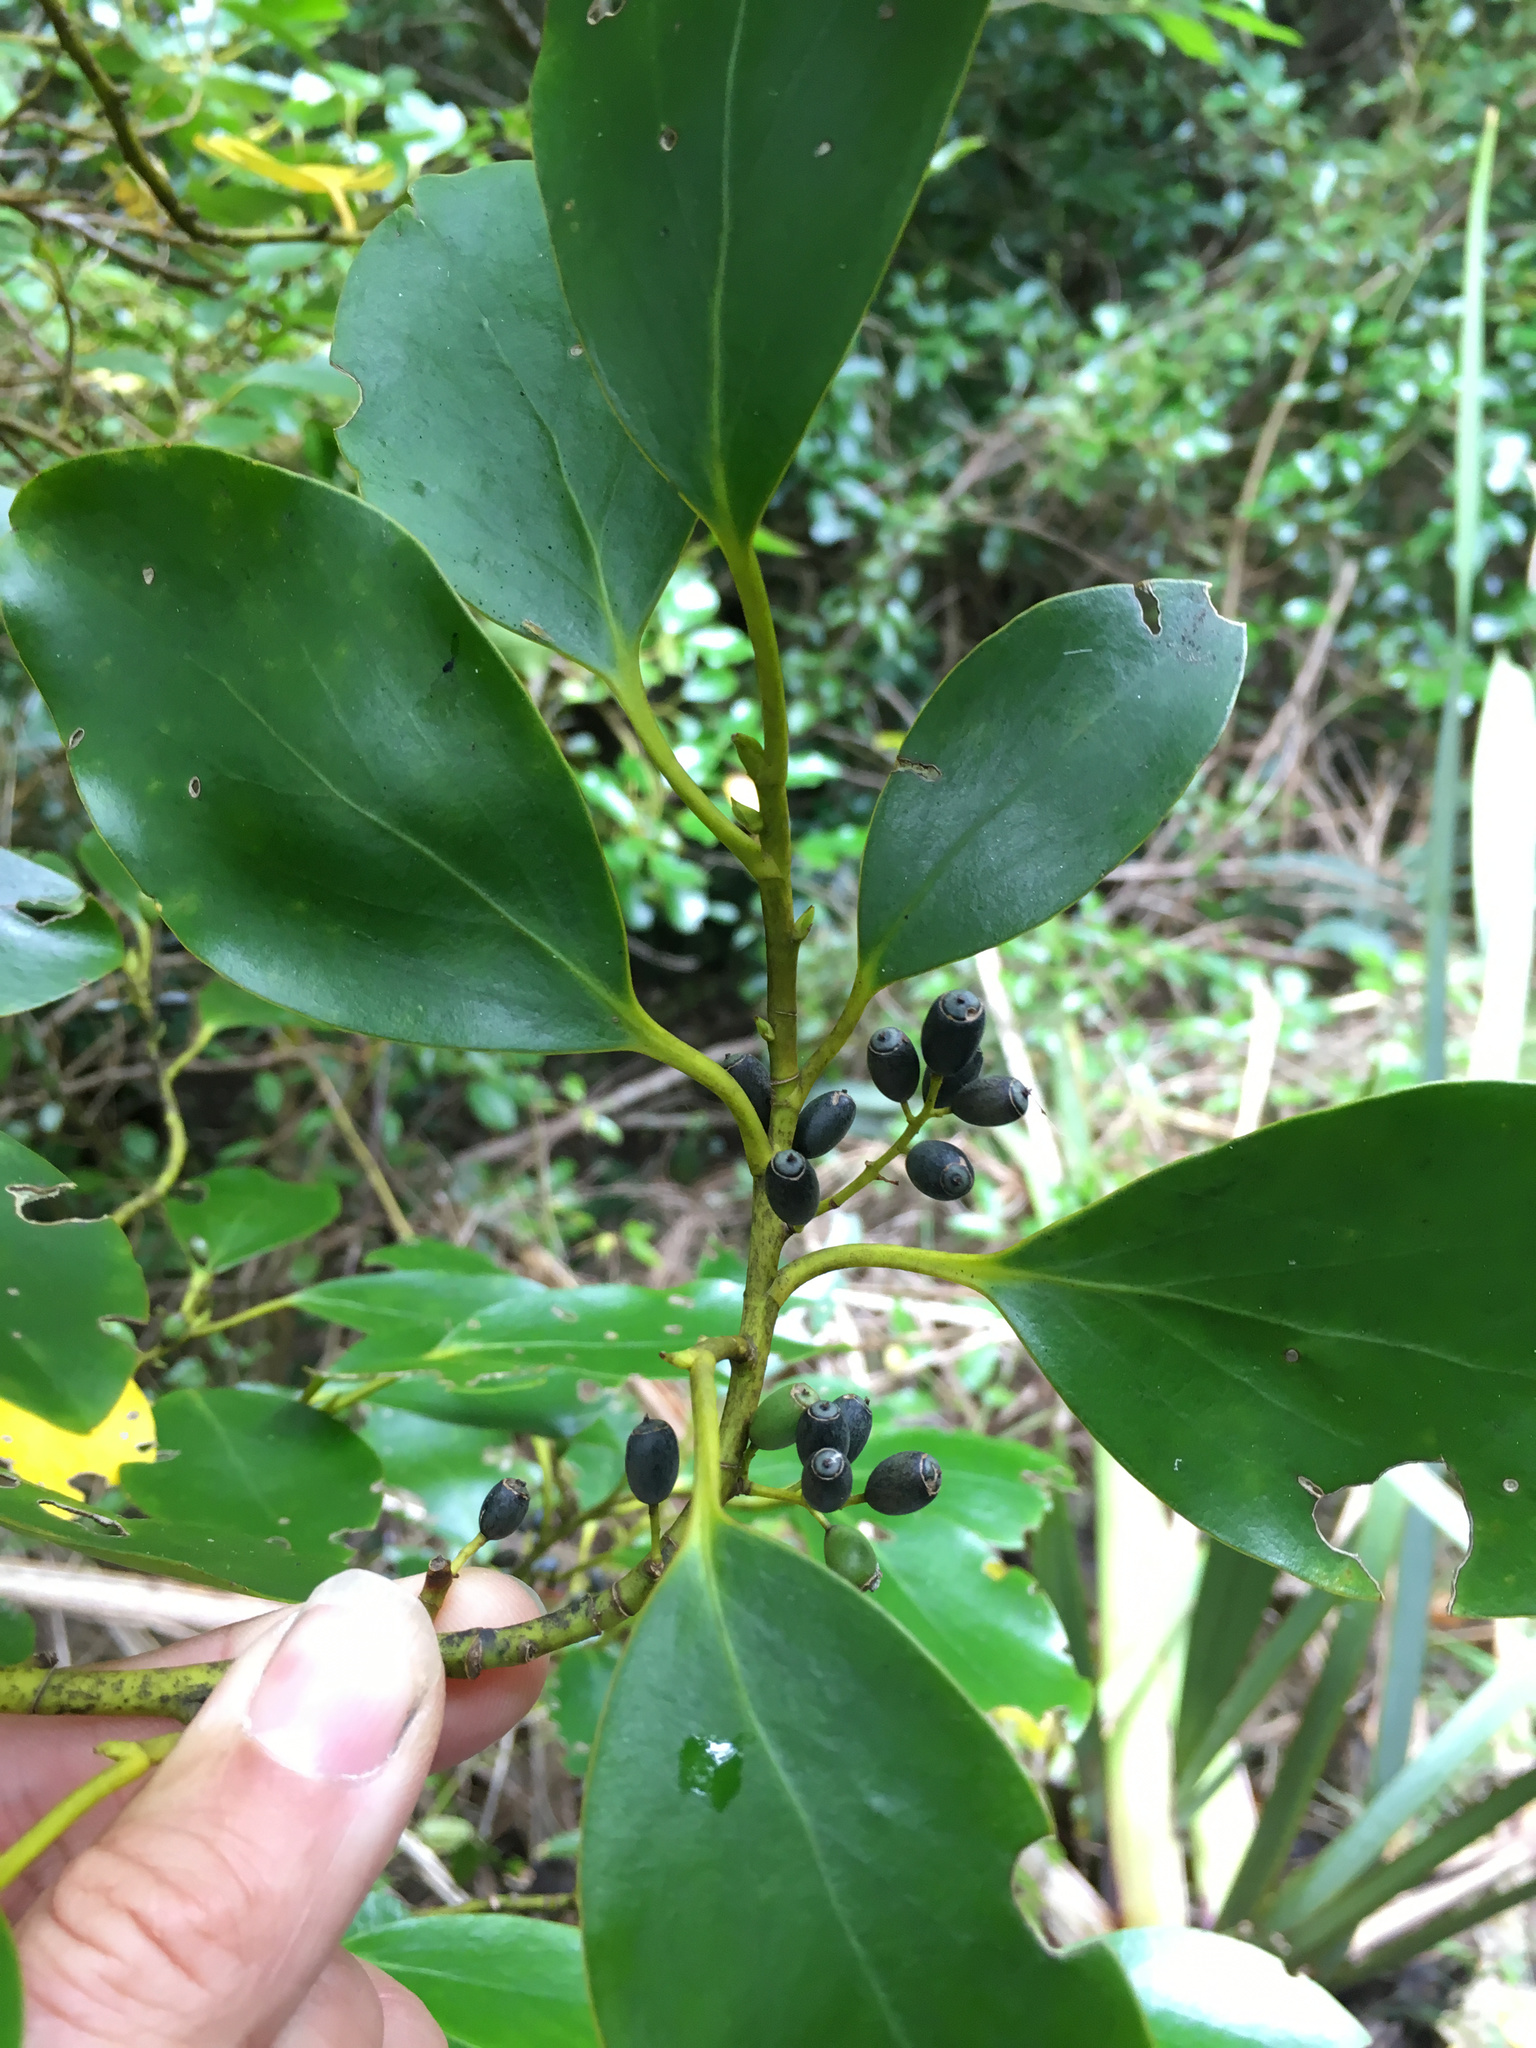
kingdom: Plantae
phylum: Tracheophyta
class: Magnoliopsida
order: Apiales
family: Griseliniaceae
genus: Griselinia
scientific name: Griselinia littoralis
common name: New zealand broadleaf
